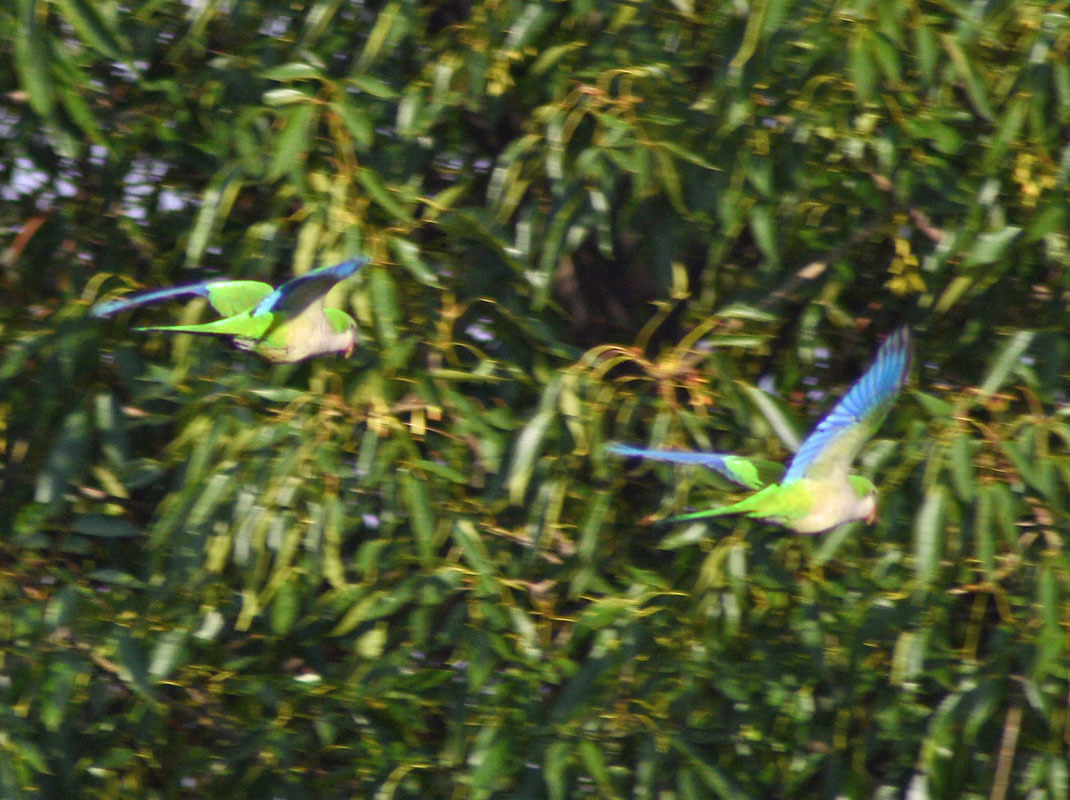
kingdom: Animalia
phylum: Chordata
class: Aves
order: Psittaciformes
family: Psittacidae
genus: Myiopsitta
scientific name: Myiopsitta monachus
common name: Monk parakeet
